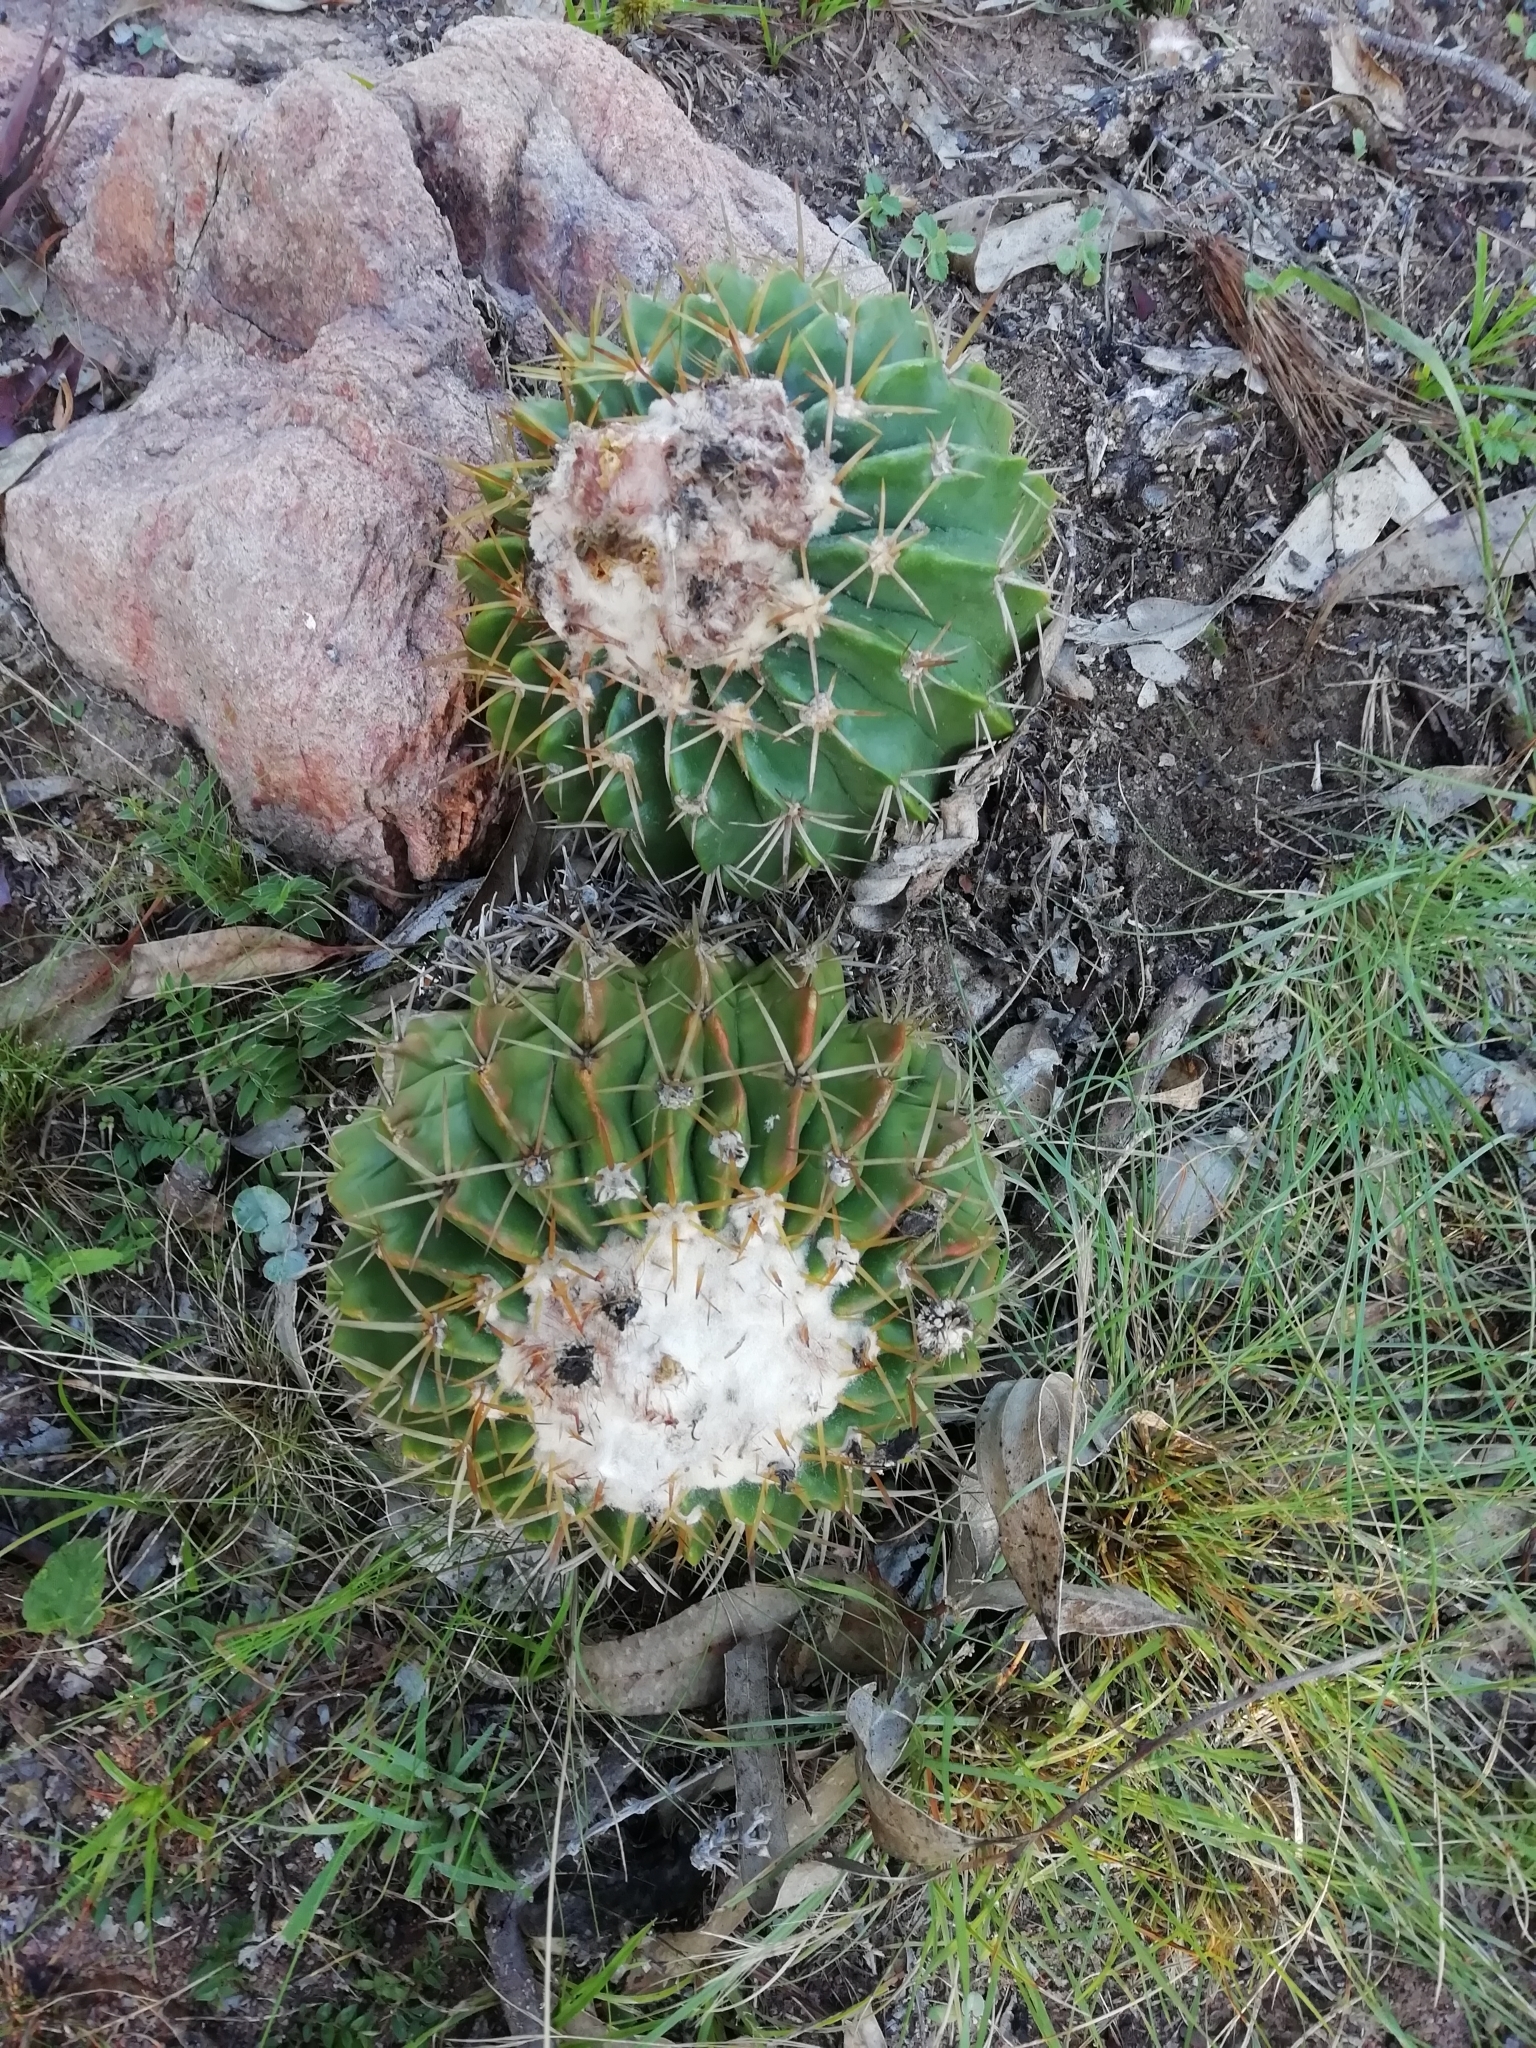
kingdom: Plantae
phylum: Tracheophyta
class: Magnoliopsida
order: Caryophyllales
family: Cactaceae
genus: Parodia
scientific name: Parodia erinacea
